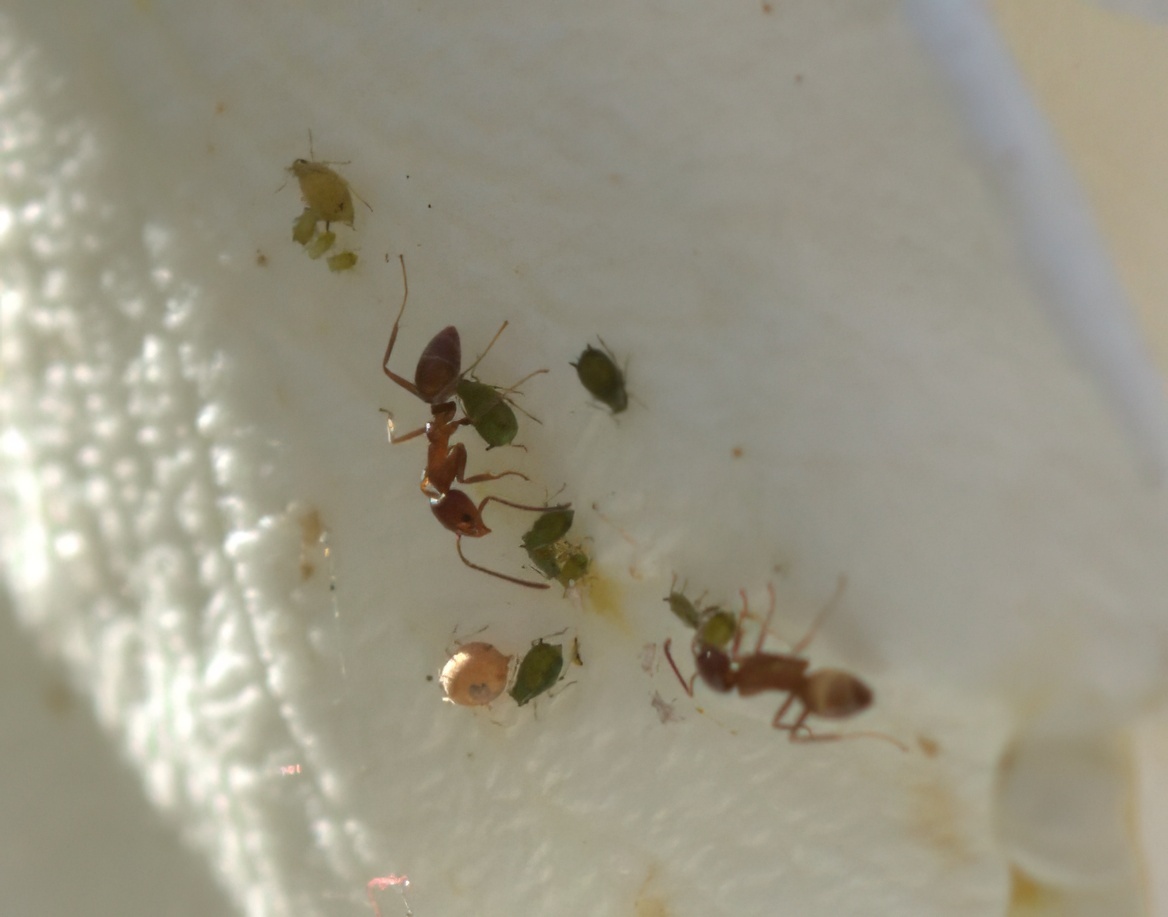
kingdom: Animalia
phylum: Arthropoda
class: Insecta
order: Hymenoptera
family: Formicidae
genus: Linepithema
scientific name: Linepithema humile
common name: Argentine ant
